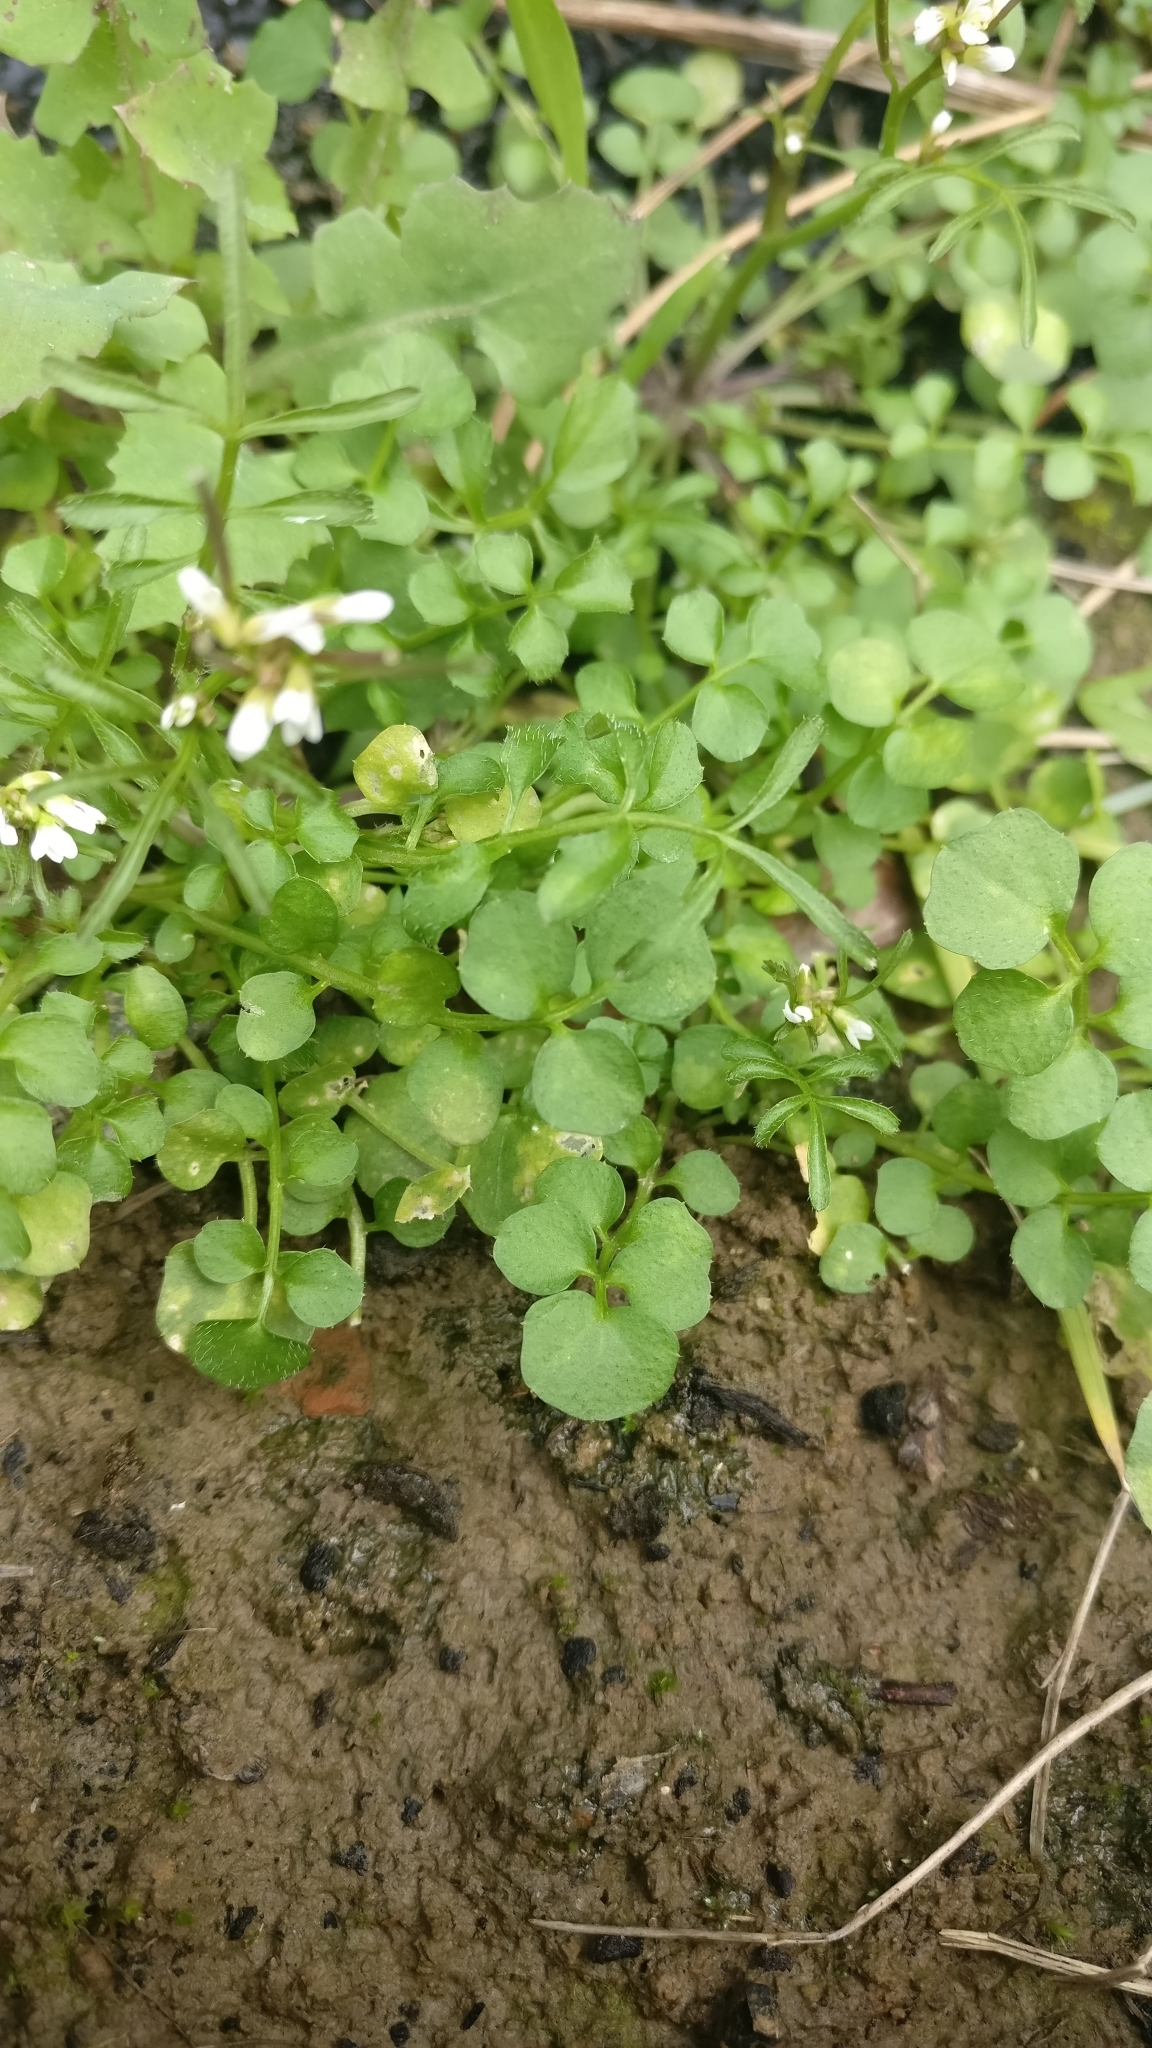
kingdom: Plantae
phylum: Tracheophyta
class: Magnoliopsida
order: Brassicales
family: Brassicaceae
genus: Cardamine
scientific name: Cardamine hirsuta
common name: Hairy bittercress
